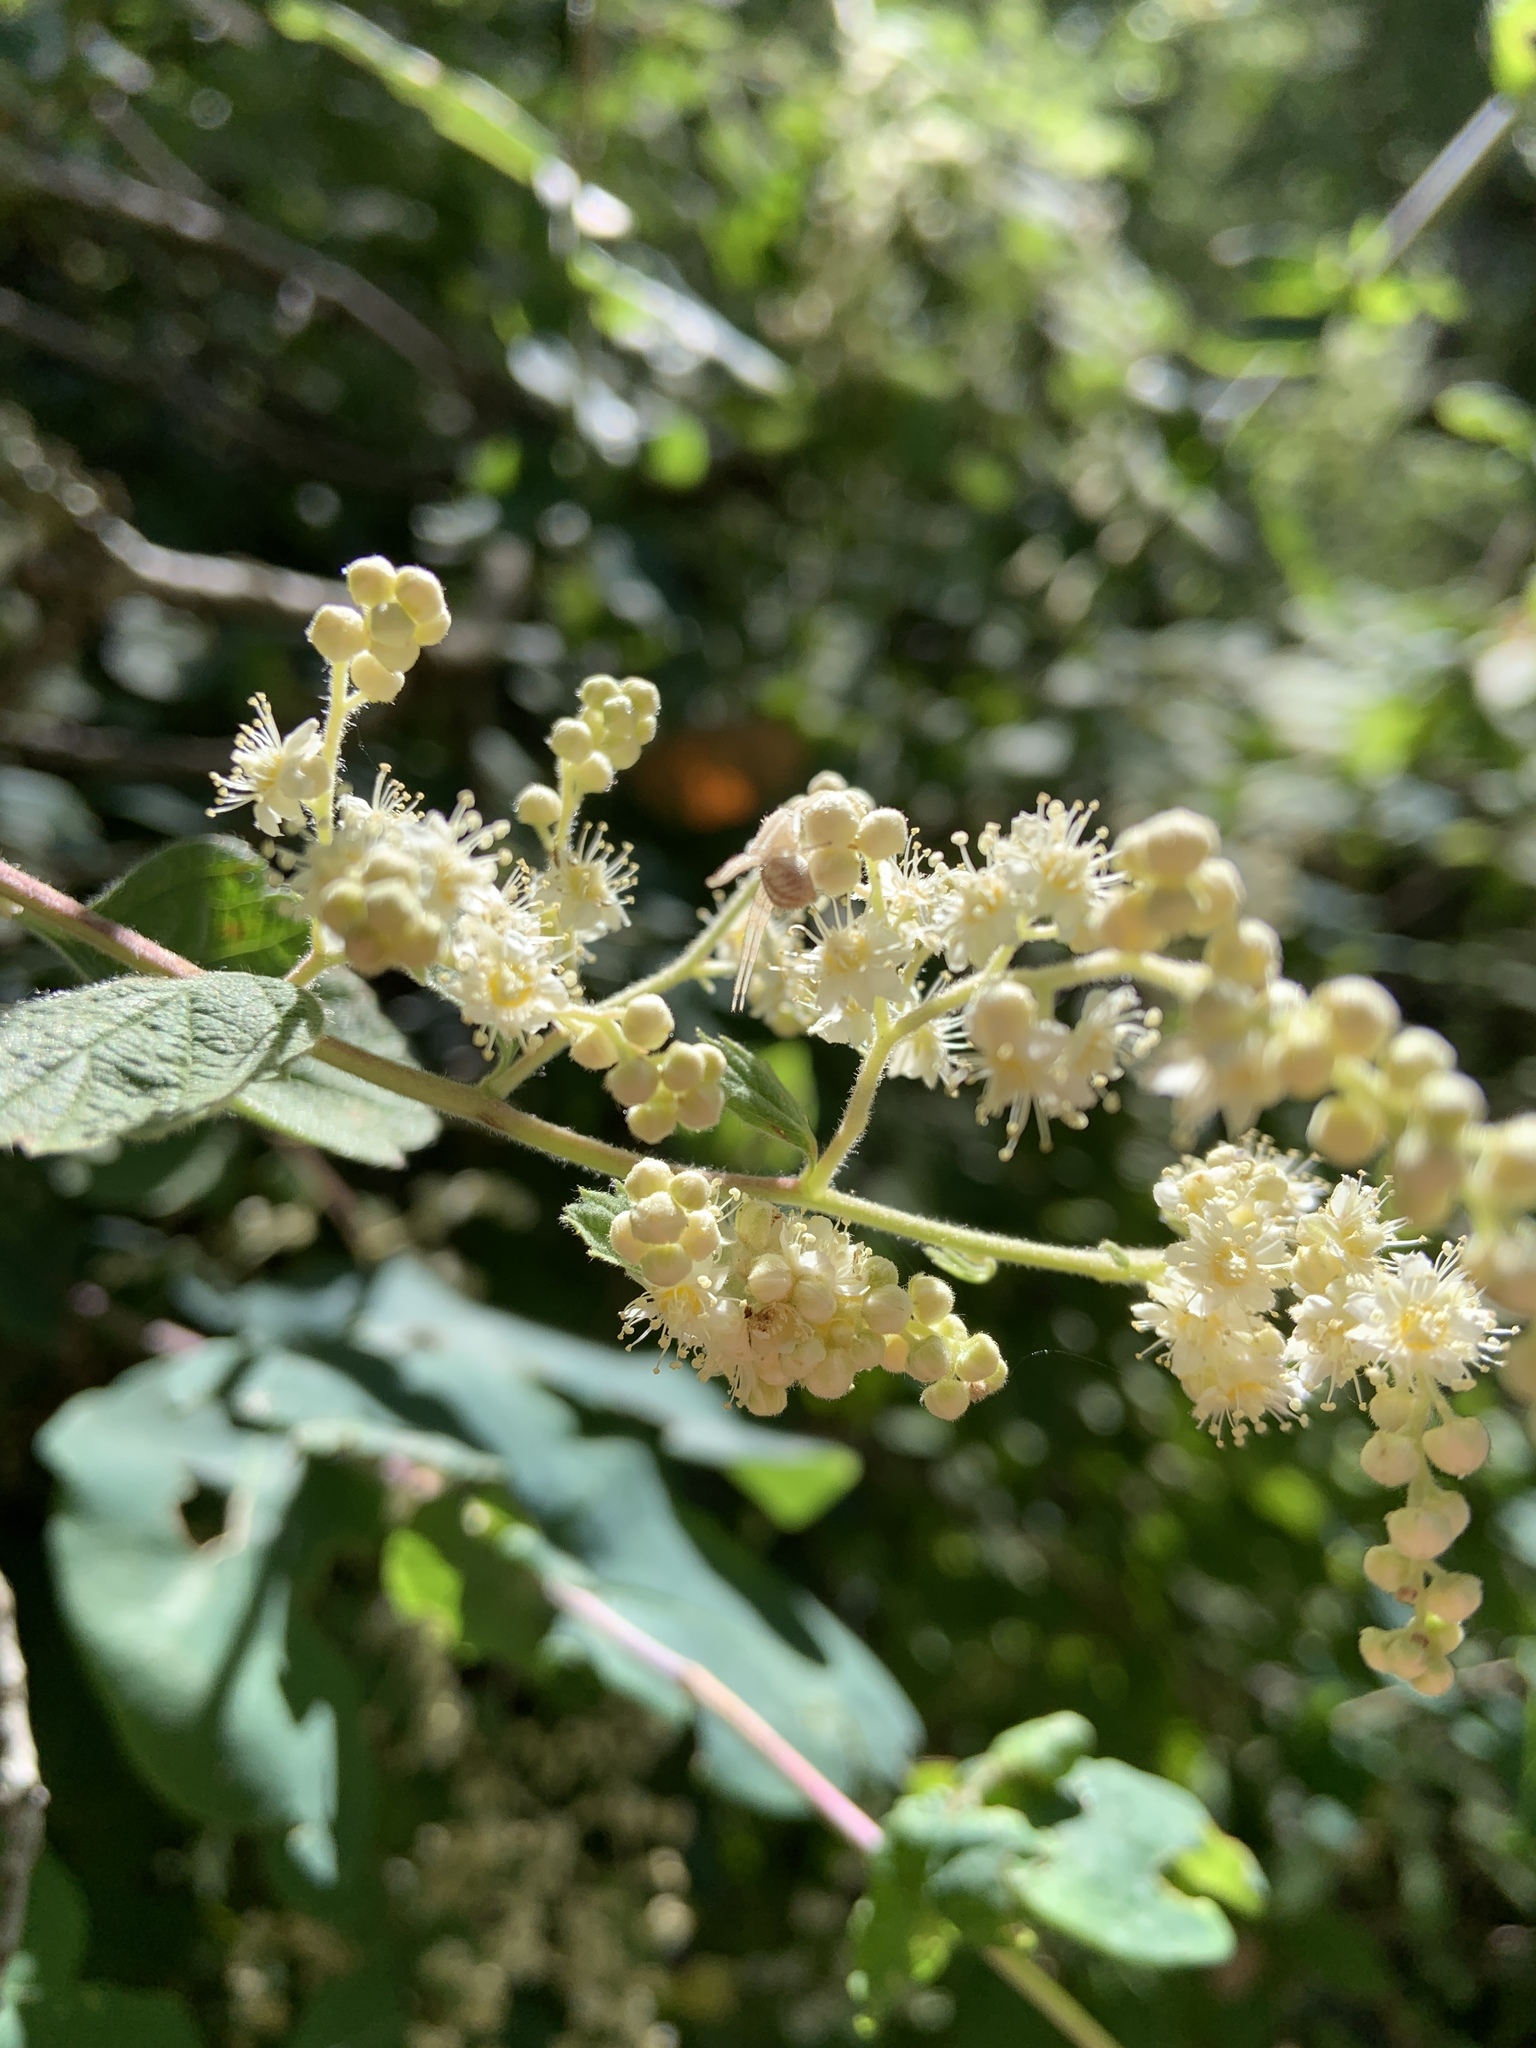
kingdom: Plantae
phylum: Tracheophyta
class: Magnoliopsida
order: Rosales
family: Rosaceae
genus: Holodiscus
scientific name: Holodiscus discolor
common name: Oceanspray
